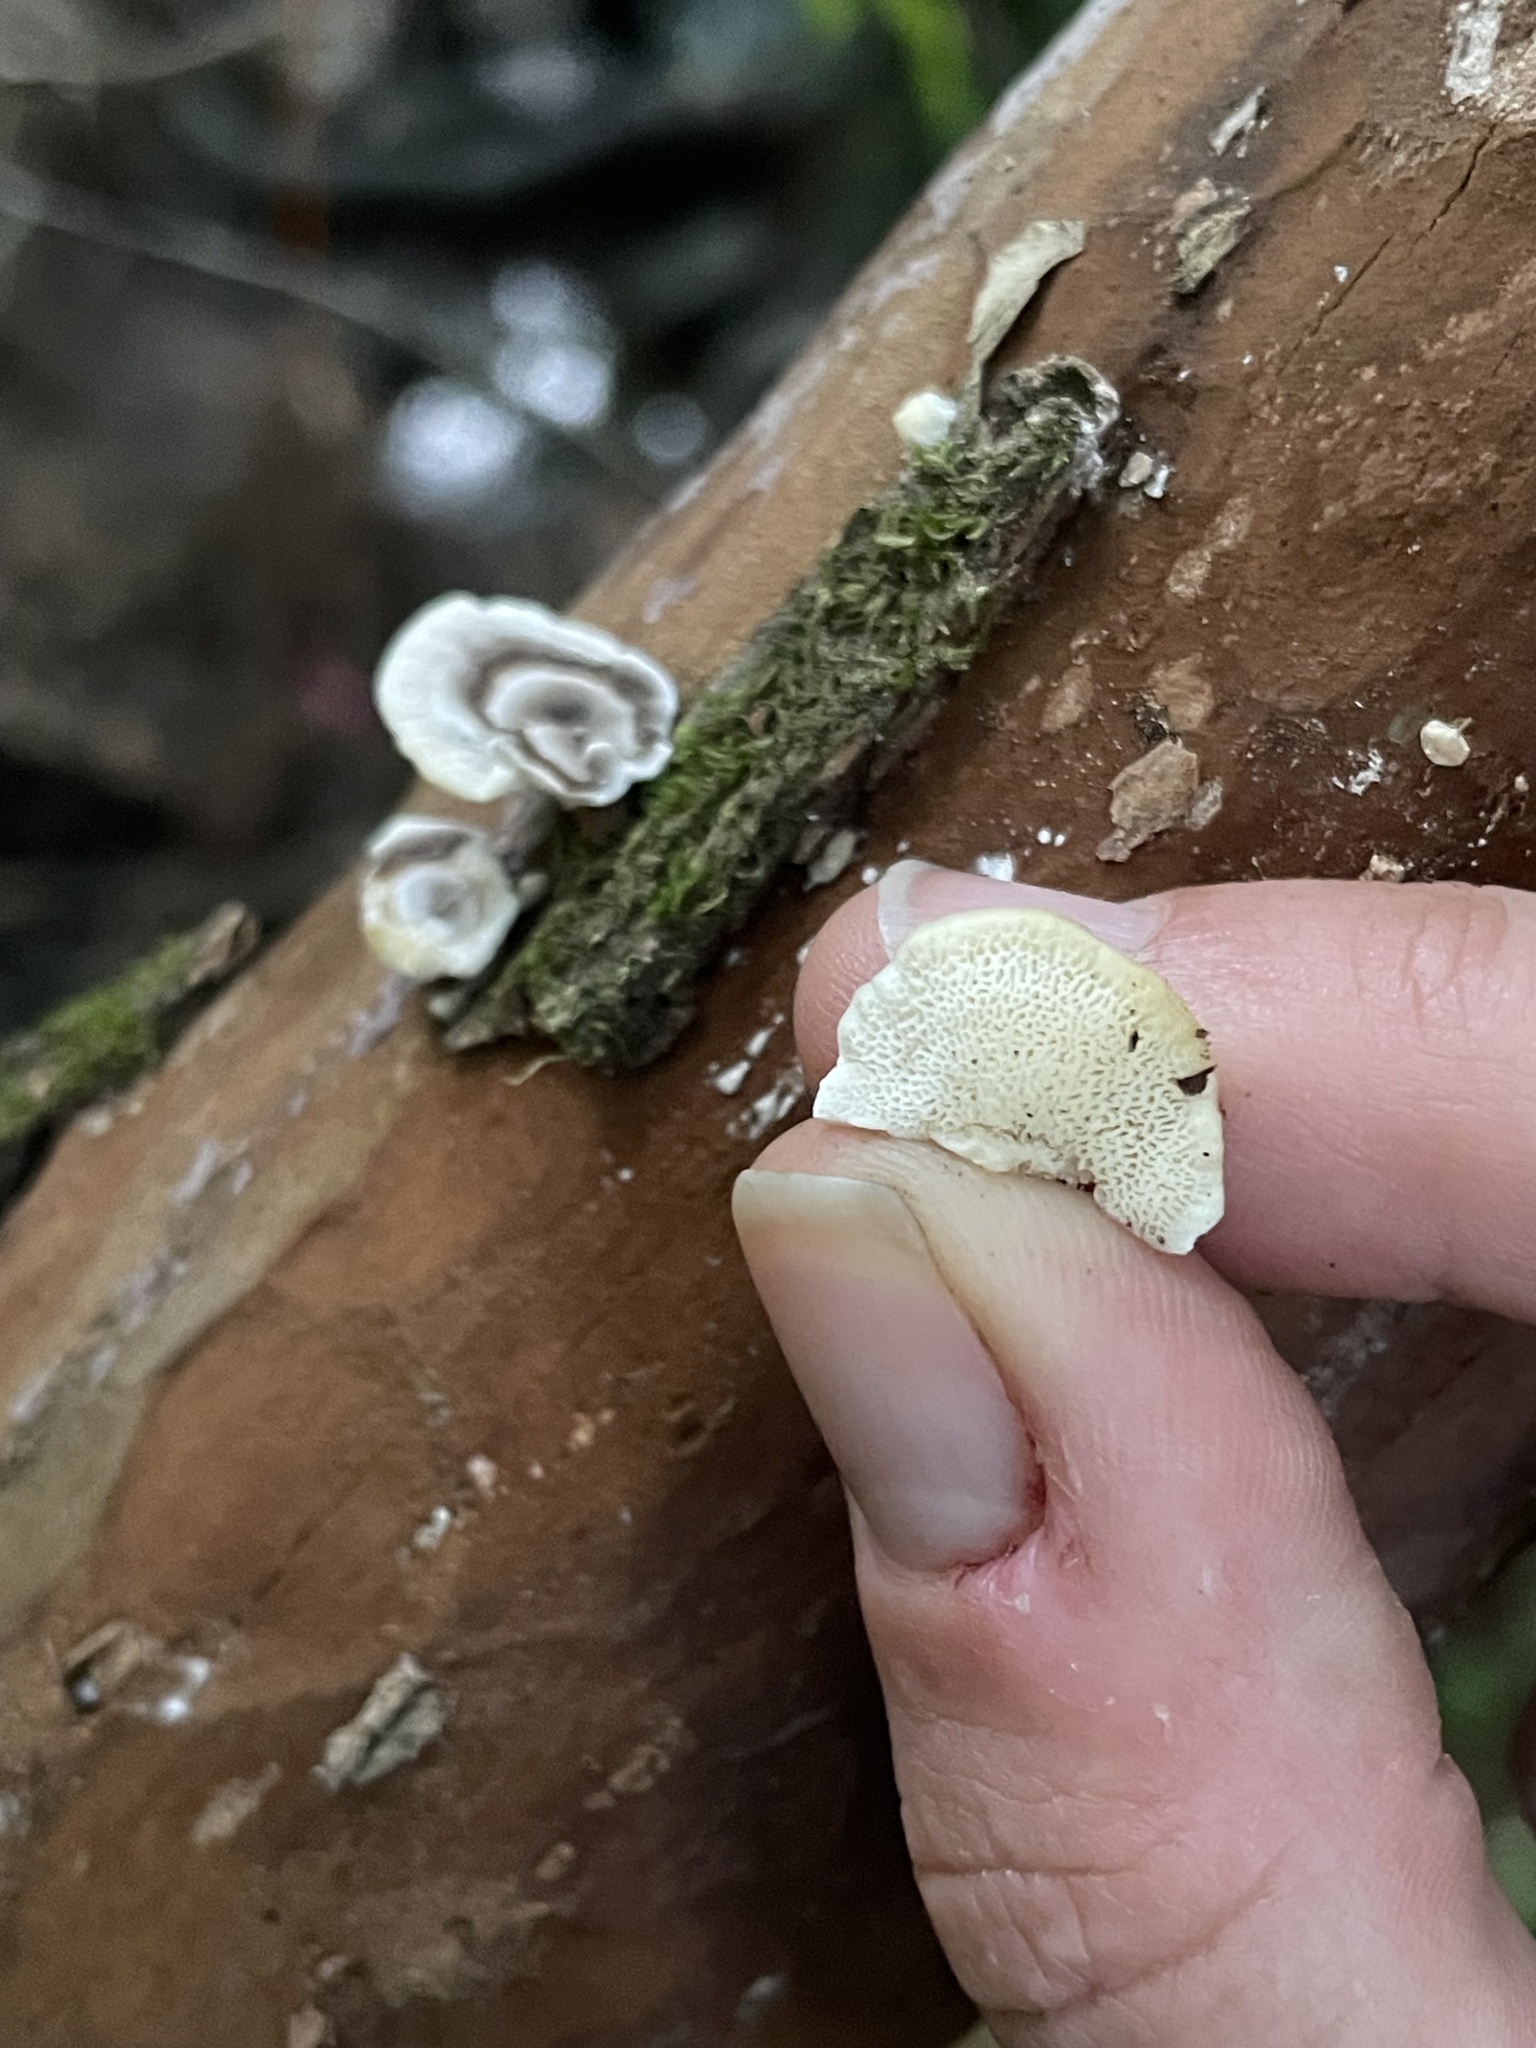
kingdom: Fungi
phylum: Basidiomycota
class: Agaricomycetes
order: Polyporales
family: Polyporaceae
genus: Poronidulus
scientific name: Poronidulus conchifer
